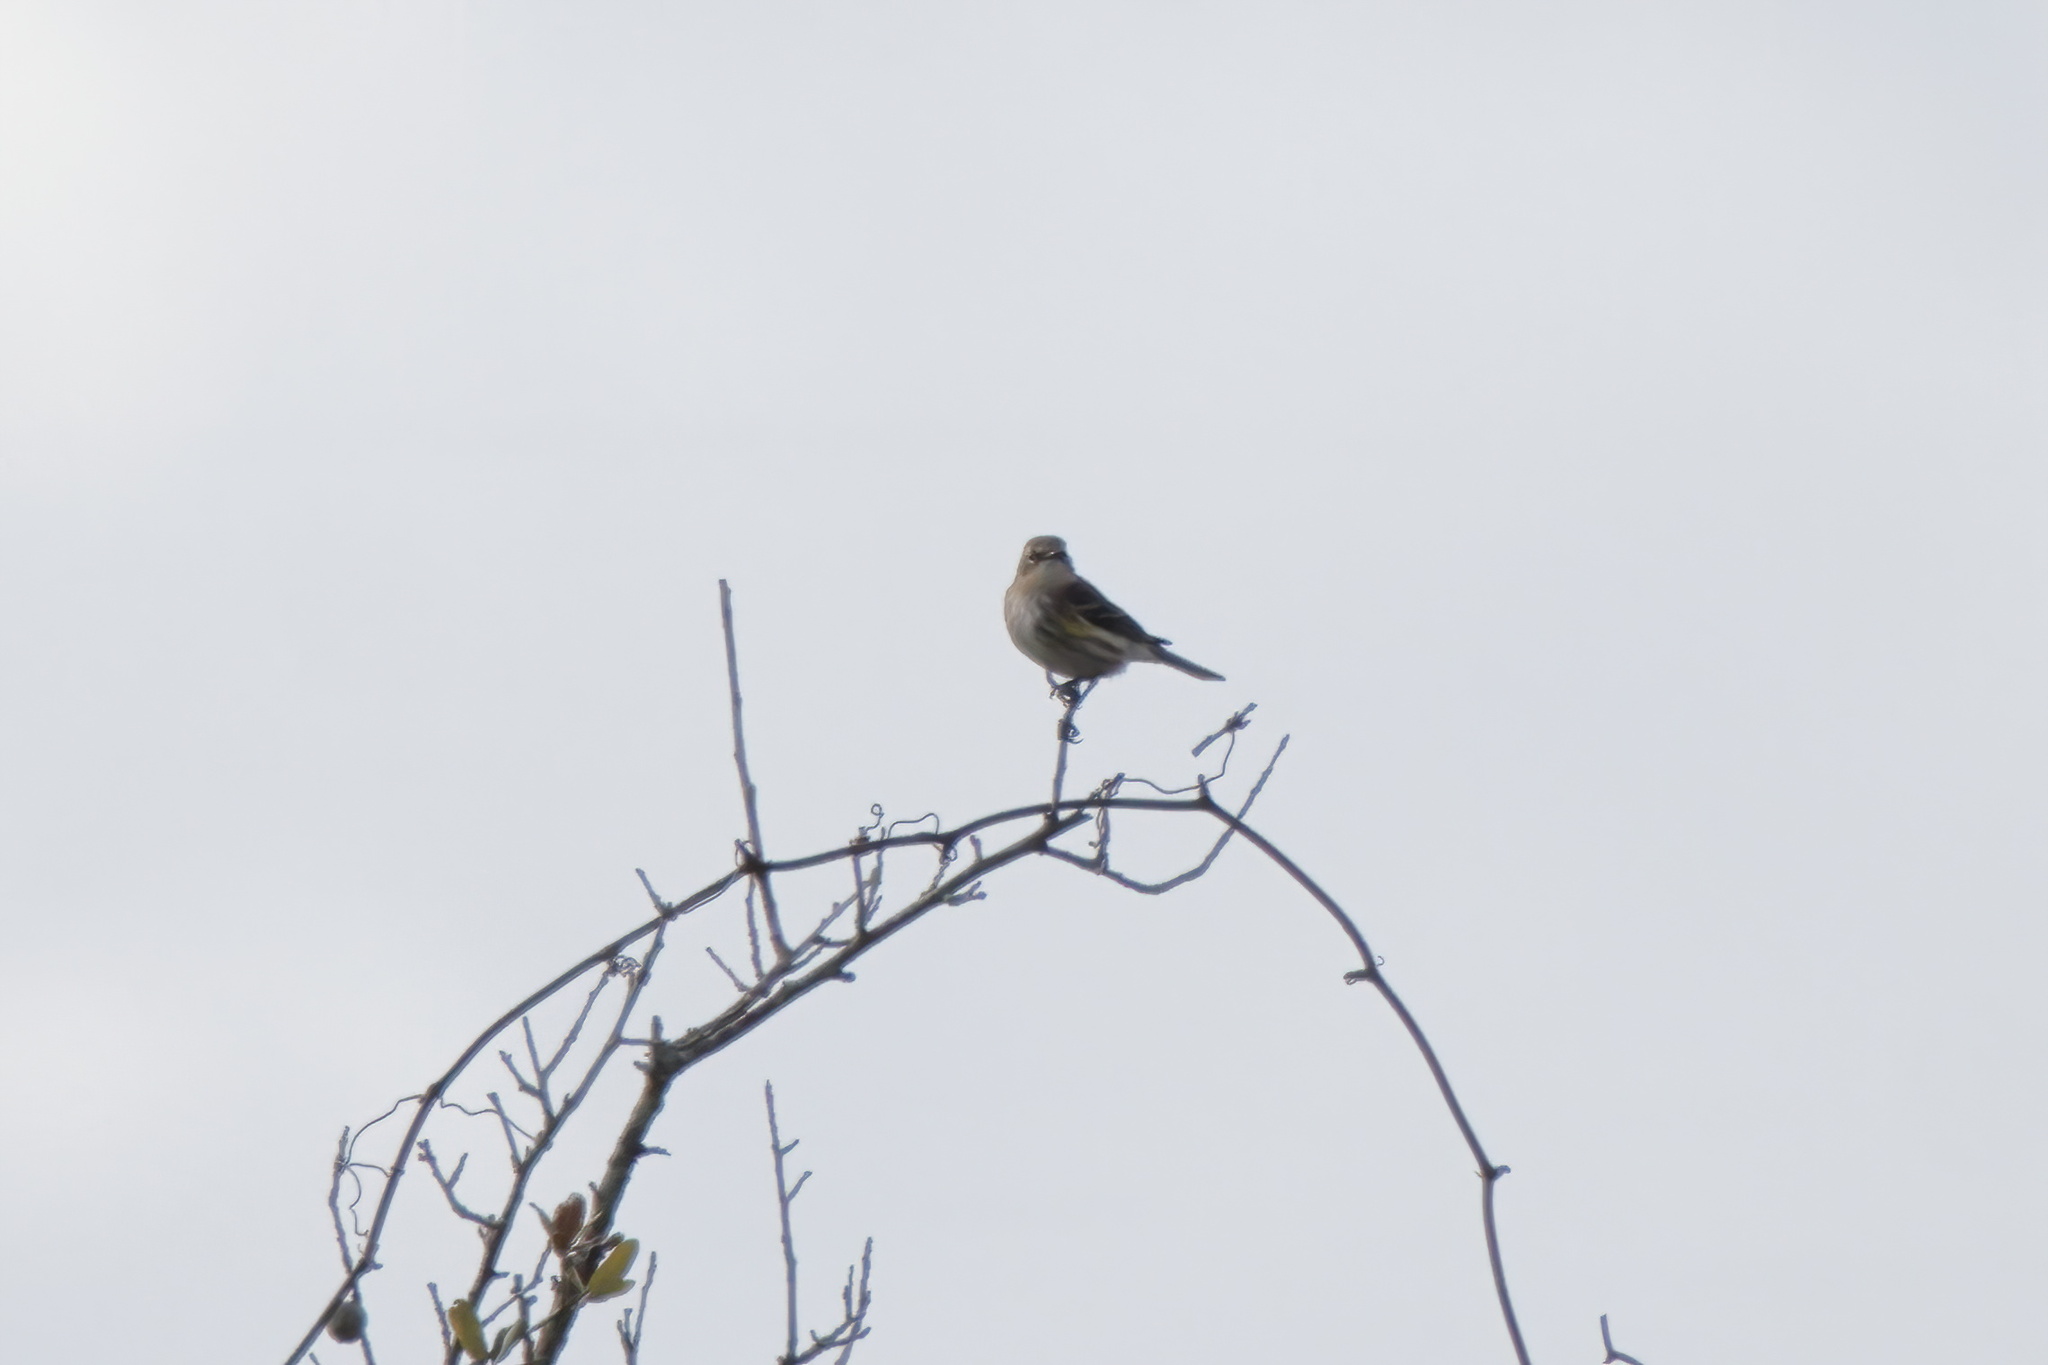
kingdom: Animalia
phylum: Chordata
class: Aves
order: Passeriformes
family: Parulidae
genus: Setophaga
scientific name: Setophaga coronata
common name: Myrtle warbler
